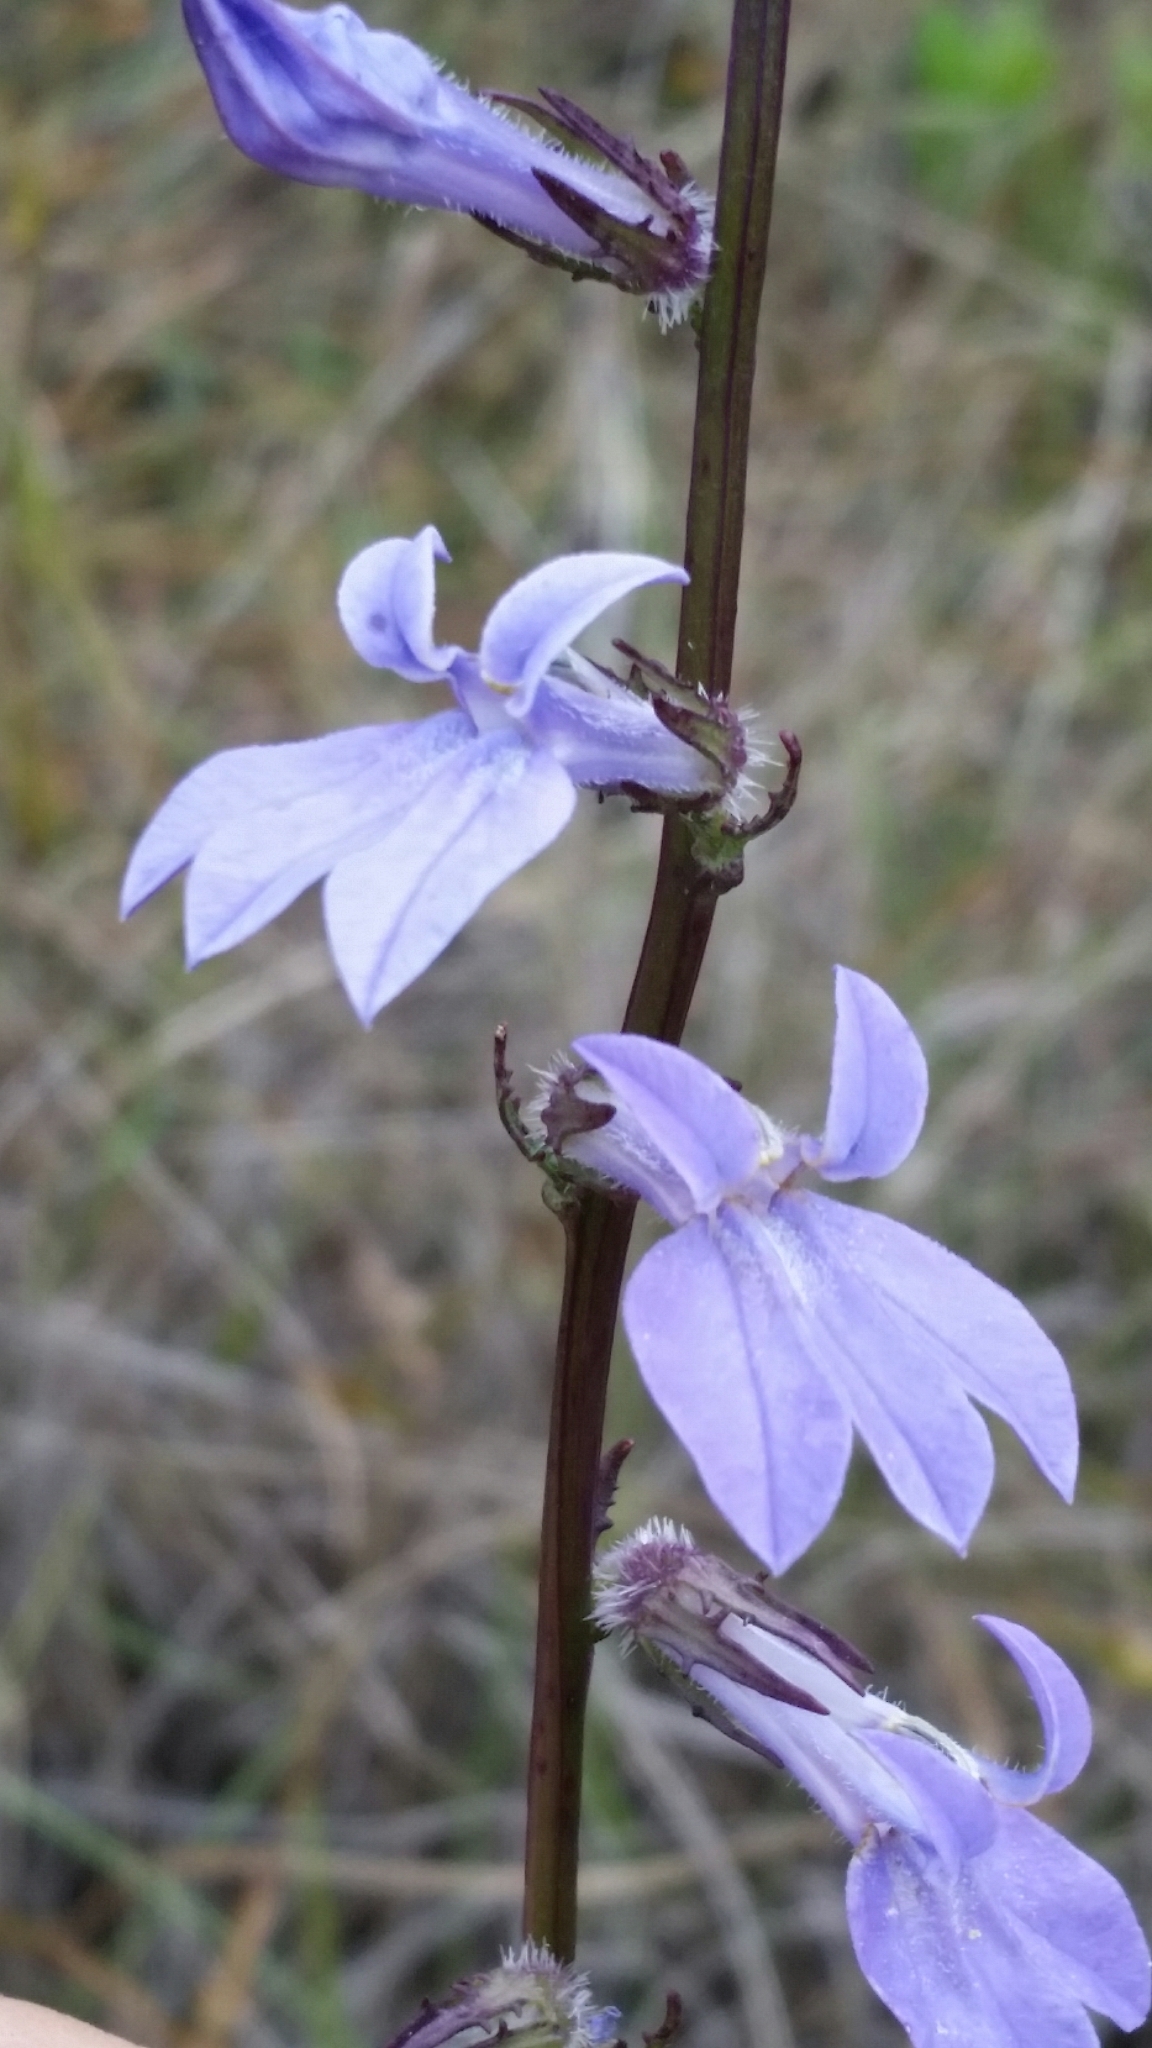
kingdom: Plantae
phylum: Tracheophyta
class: Magnoliopsida
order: Asterales
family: Campanulaceae
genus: Lobelia
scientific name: Lobelia glandulosa
